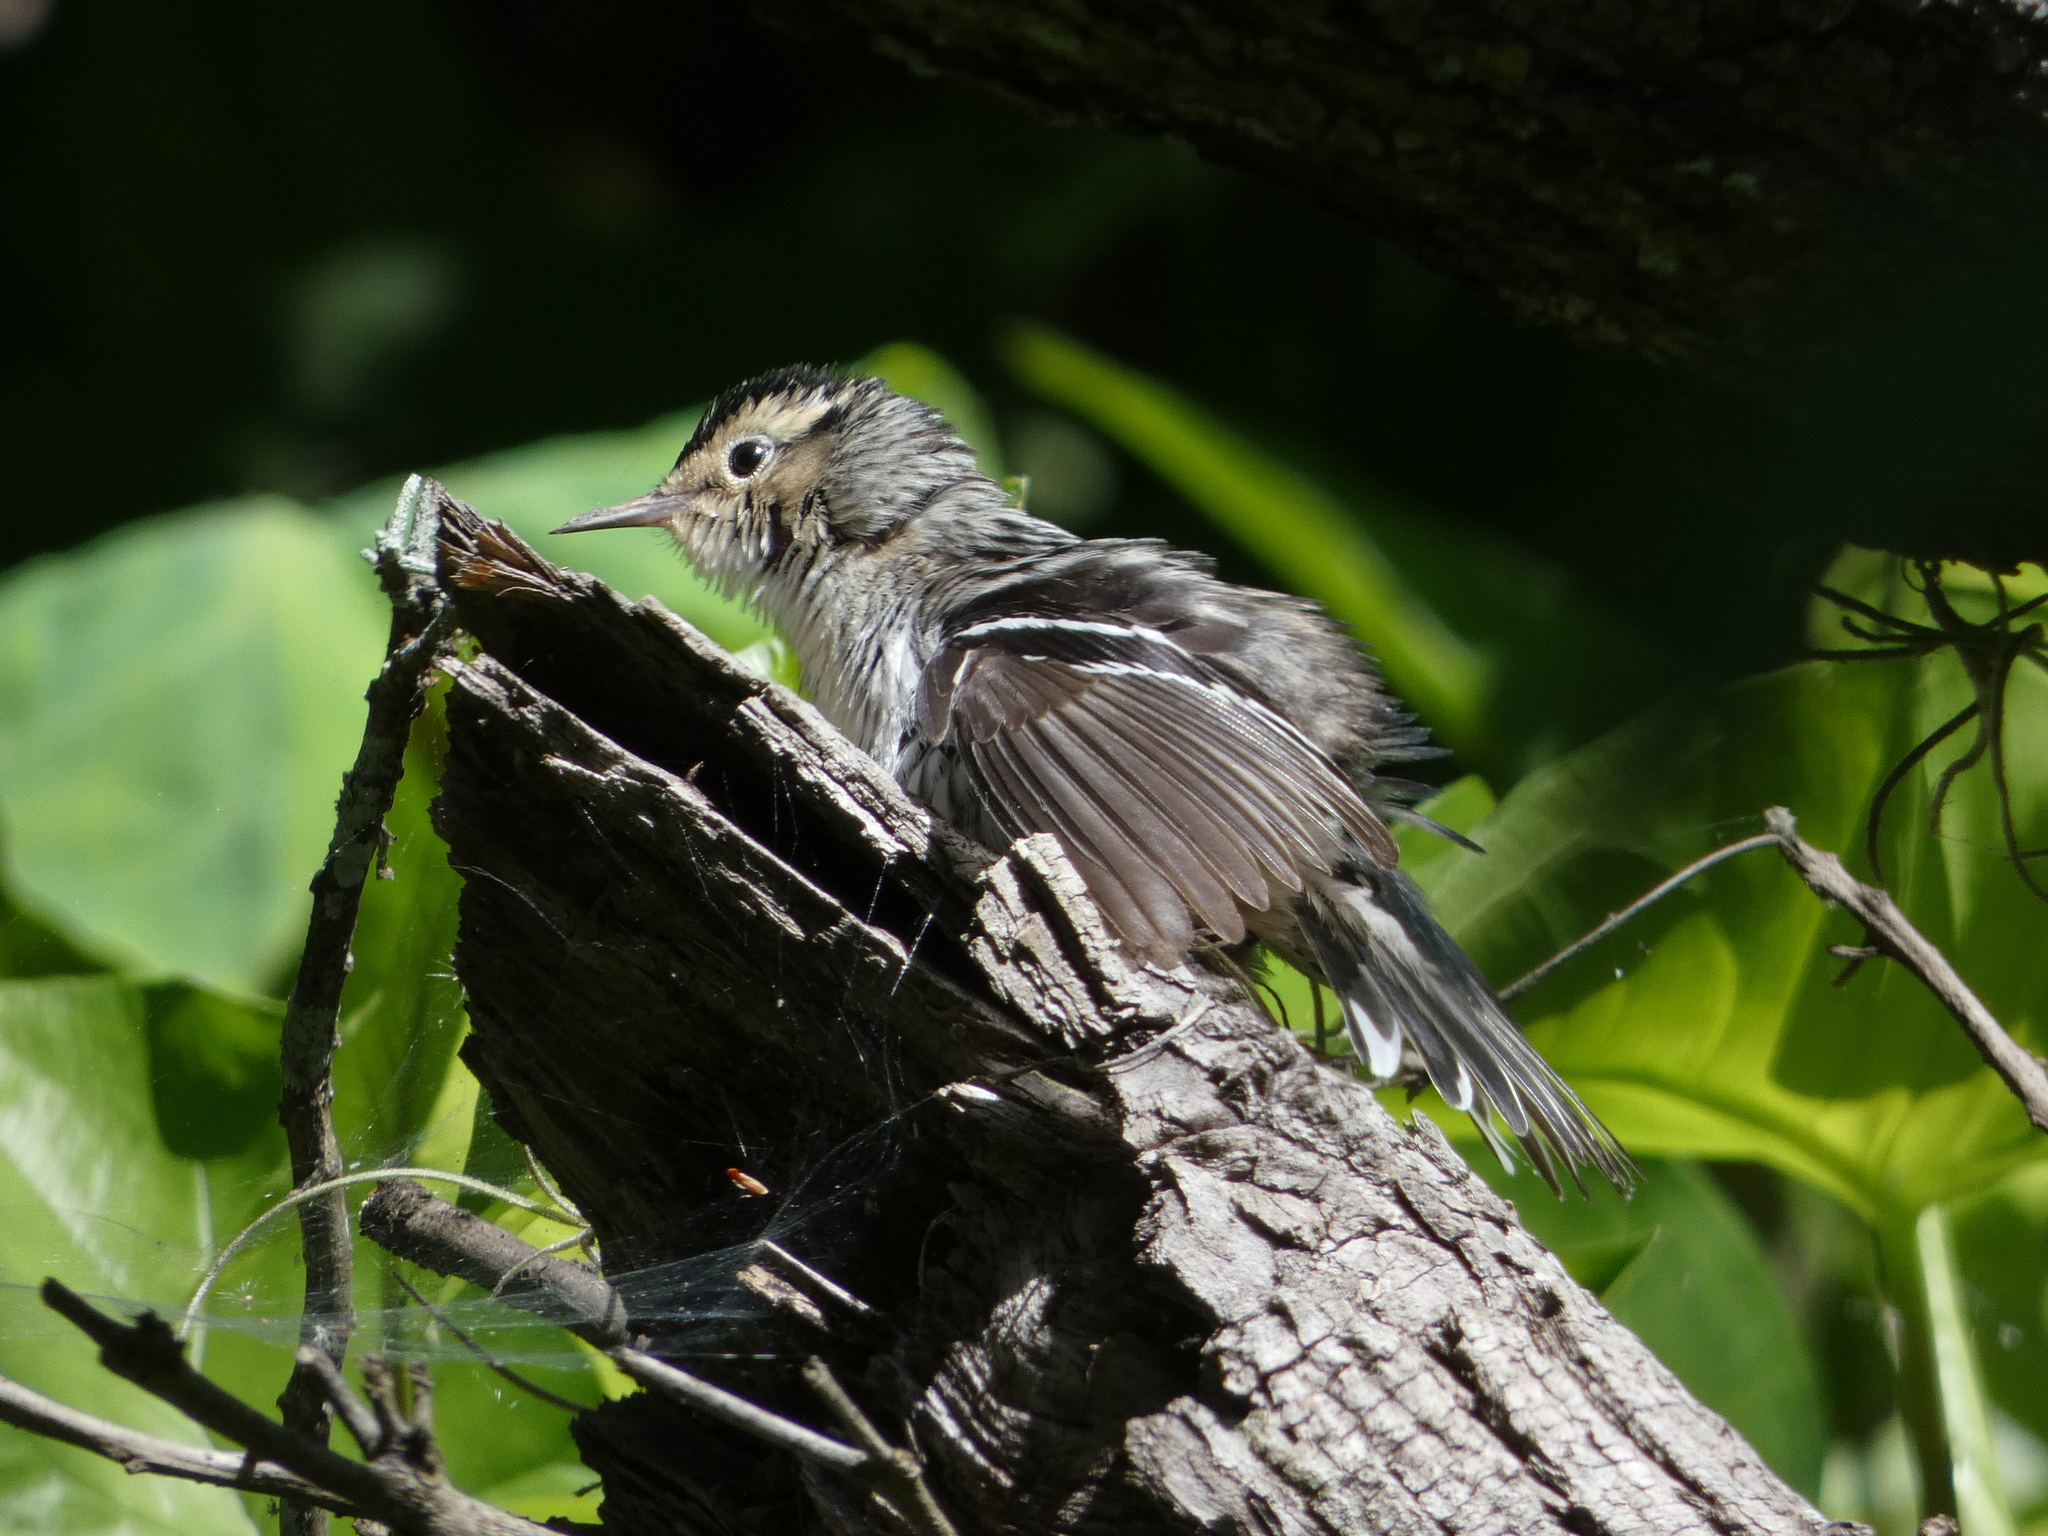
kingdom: Animalia
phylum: Chordata
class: Aves
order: Passeriformes
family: Parulidae
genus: Mniotilta
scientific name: Mniotilta varia
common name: Black-and-white warbler
